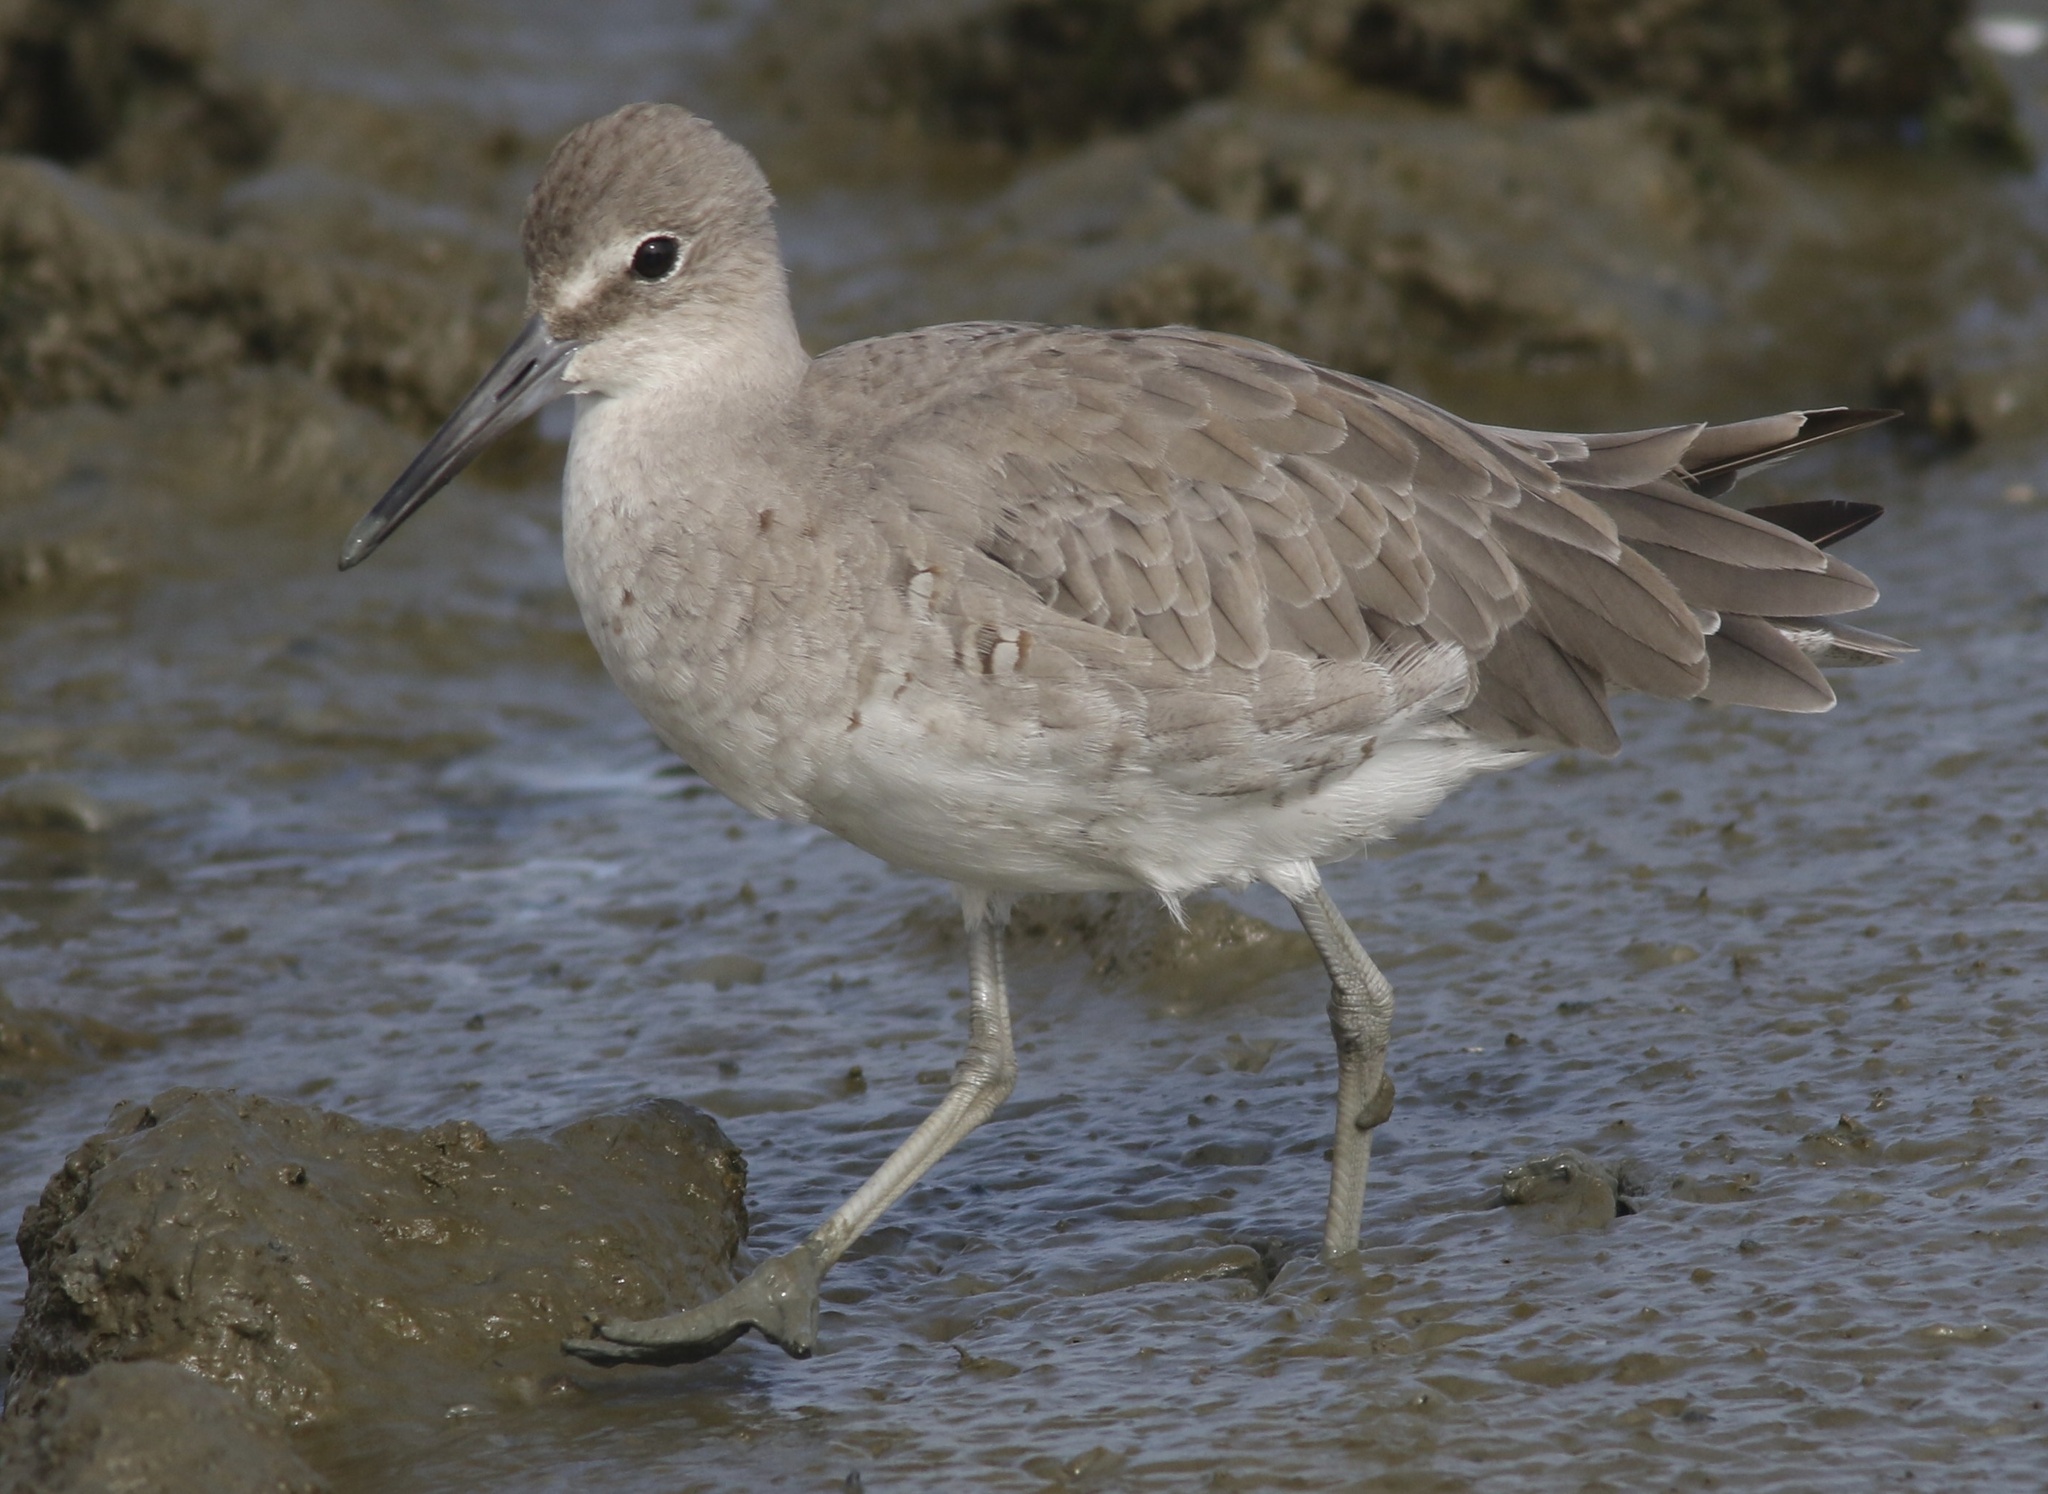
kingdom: Animalia
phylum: Chordata
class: Aves
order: Charadriiformes
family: Scolopacidae
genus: Tringa
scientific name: Tringa semipalmata
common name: Willet
